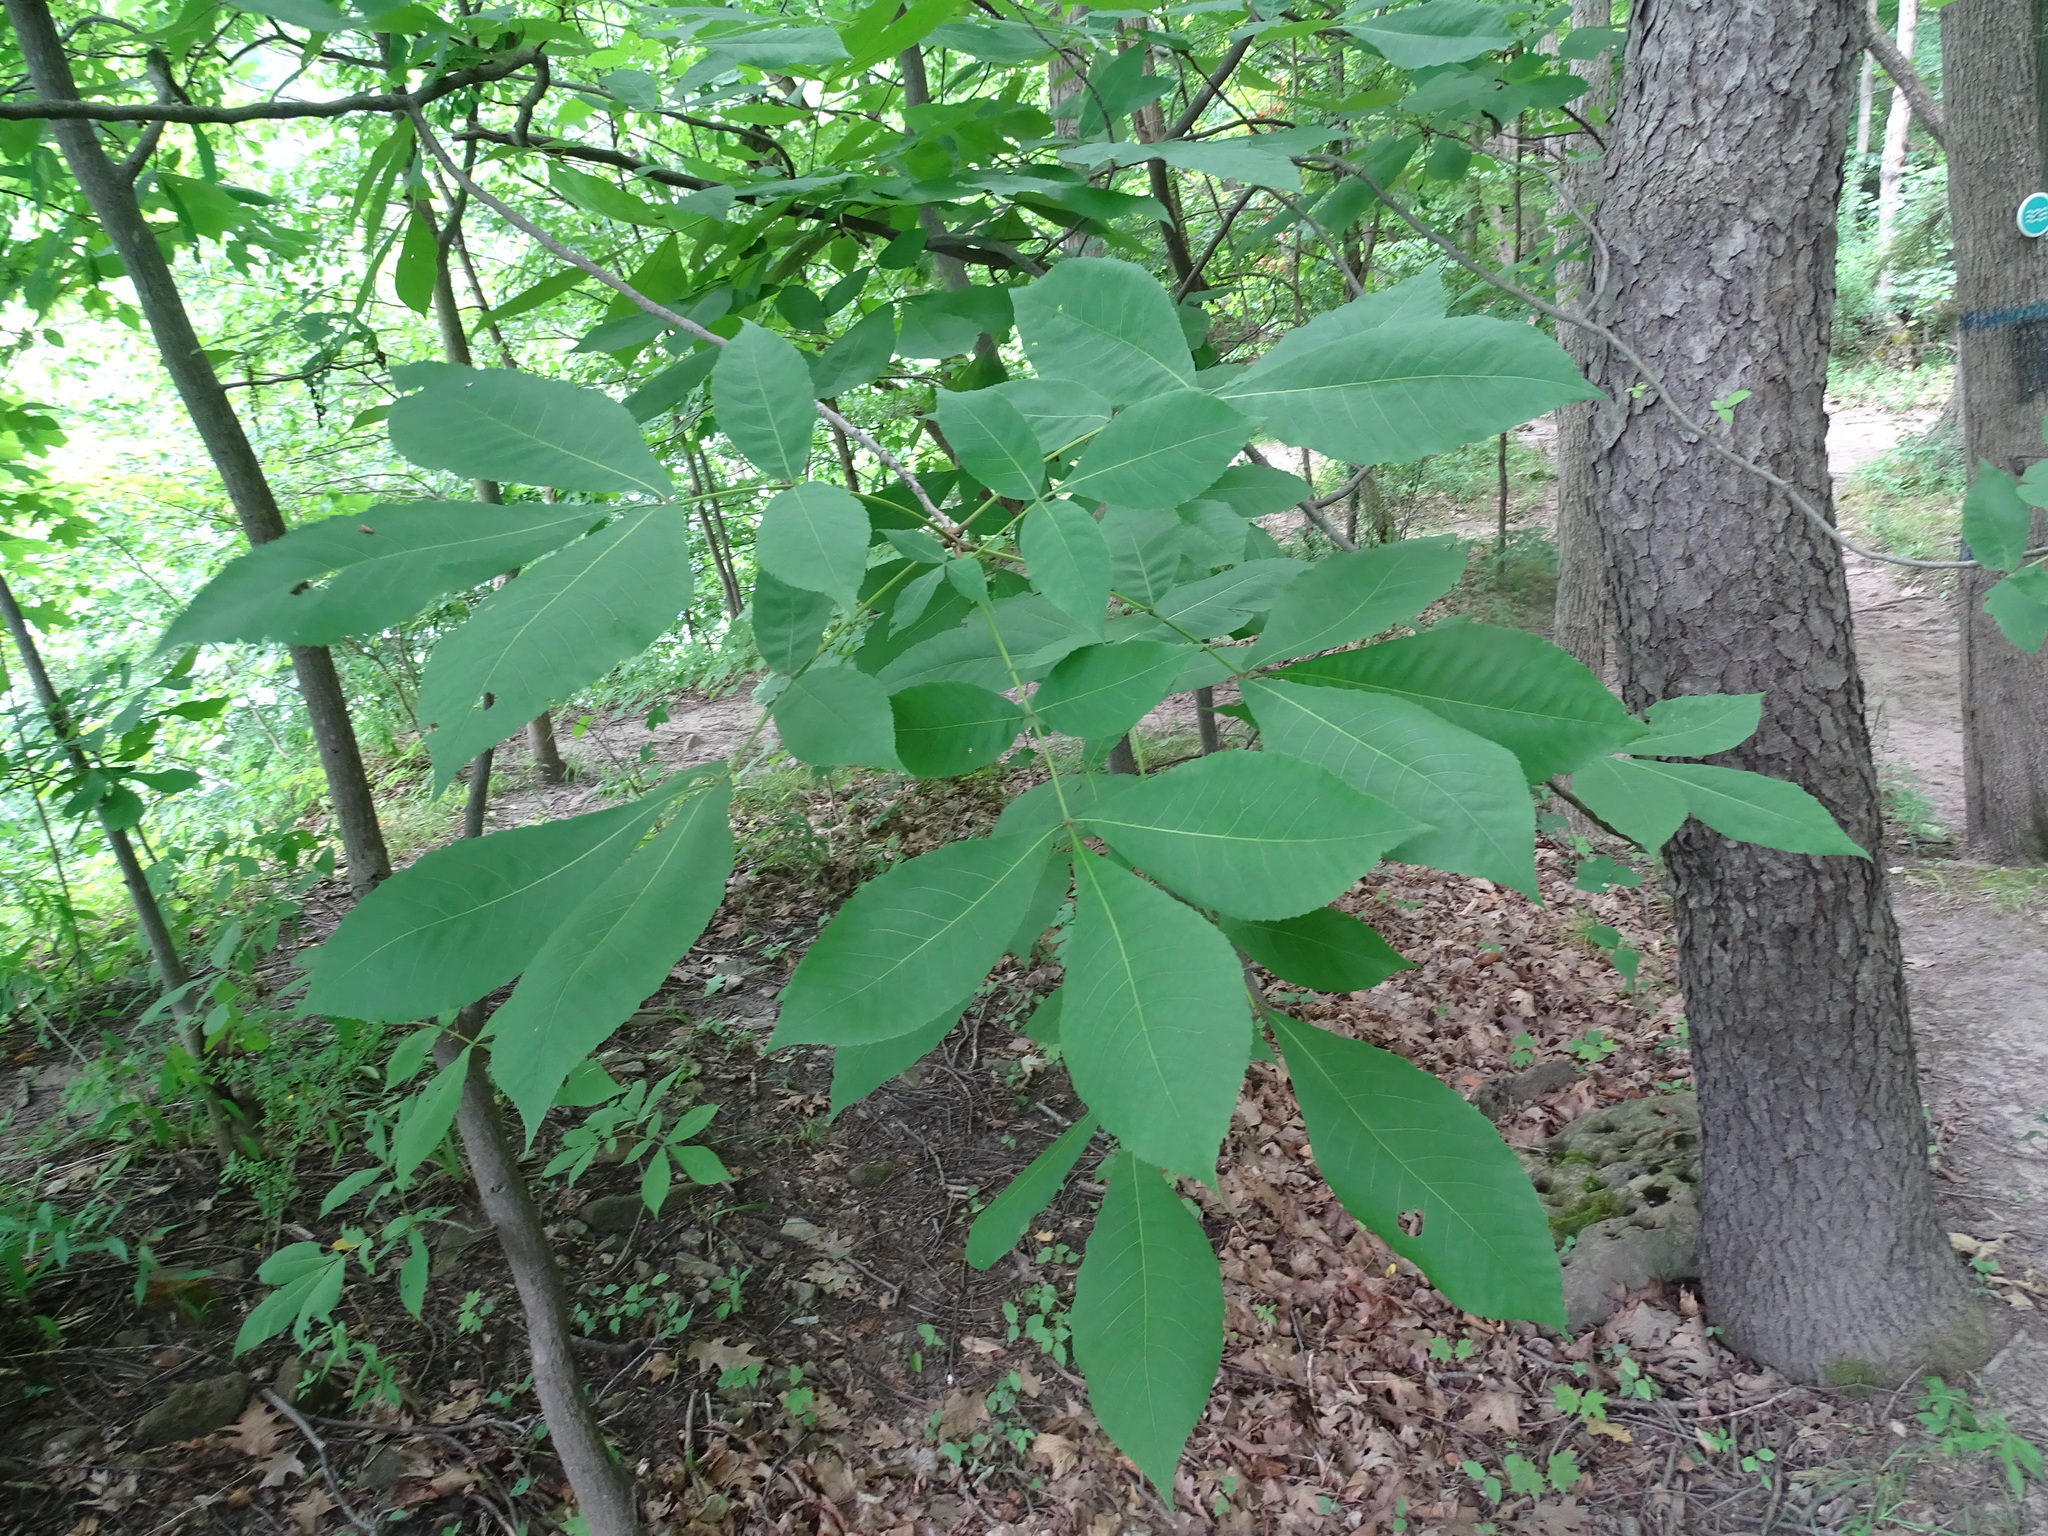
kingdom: Plantae
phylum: Tracheophyta
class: Magnoliopsida
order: Fagales
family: Juglandaceae
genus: Carya
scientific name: Carya ovata
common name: Shagbark hickory
